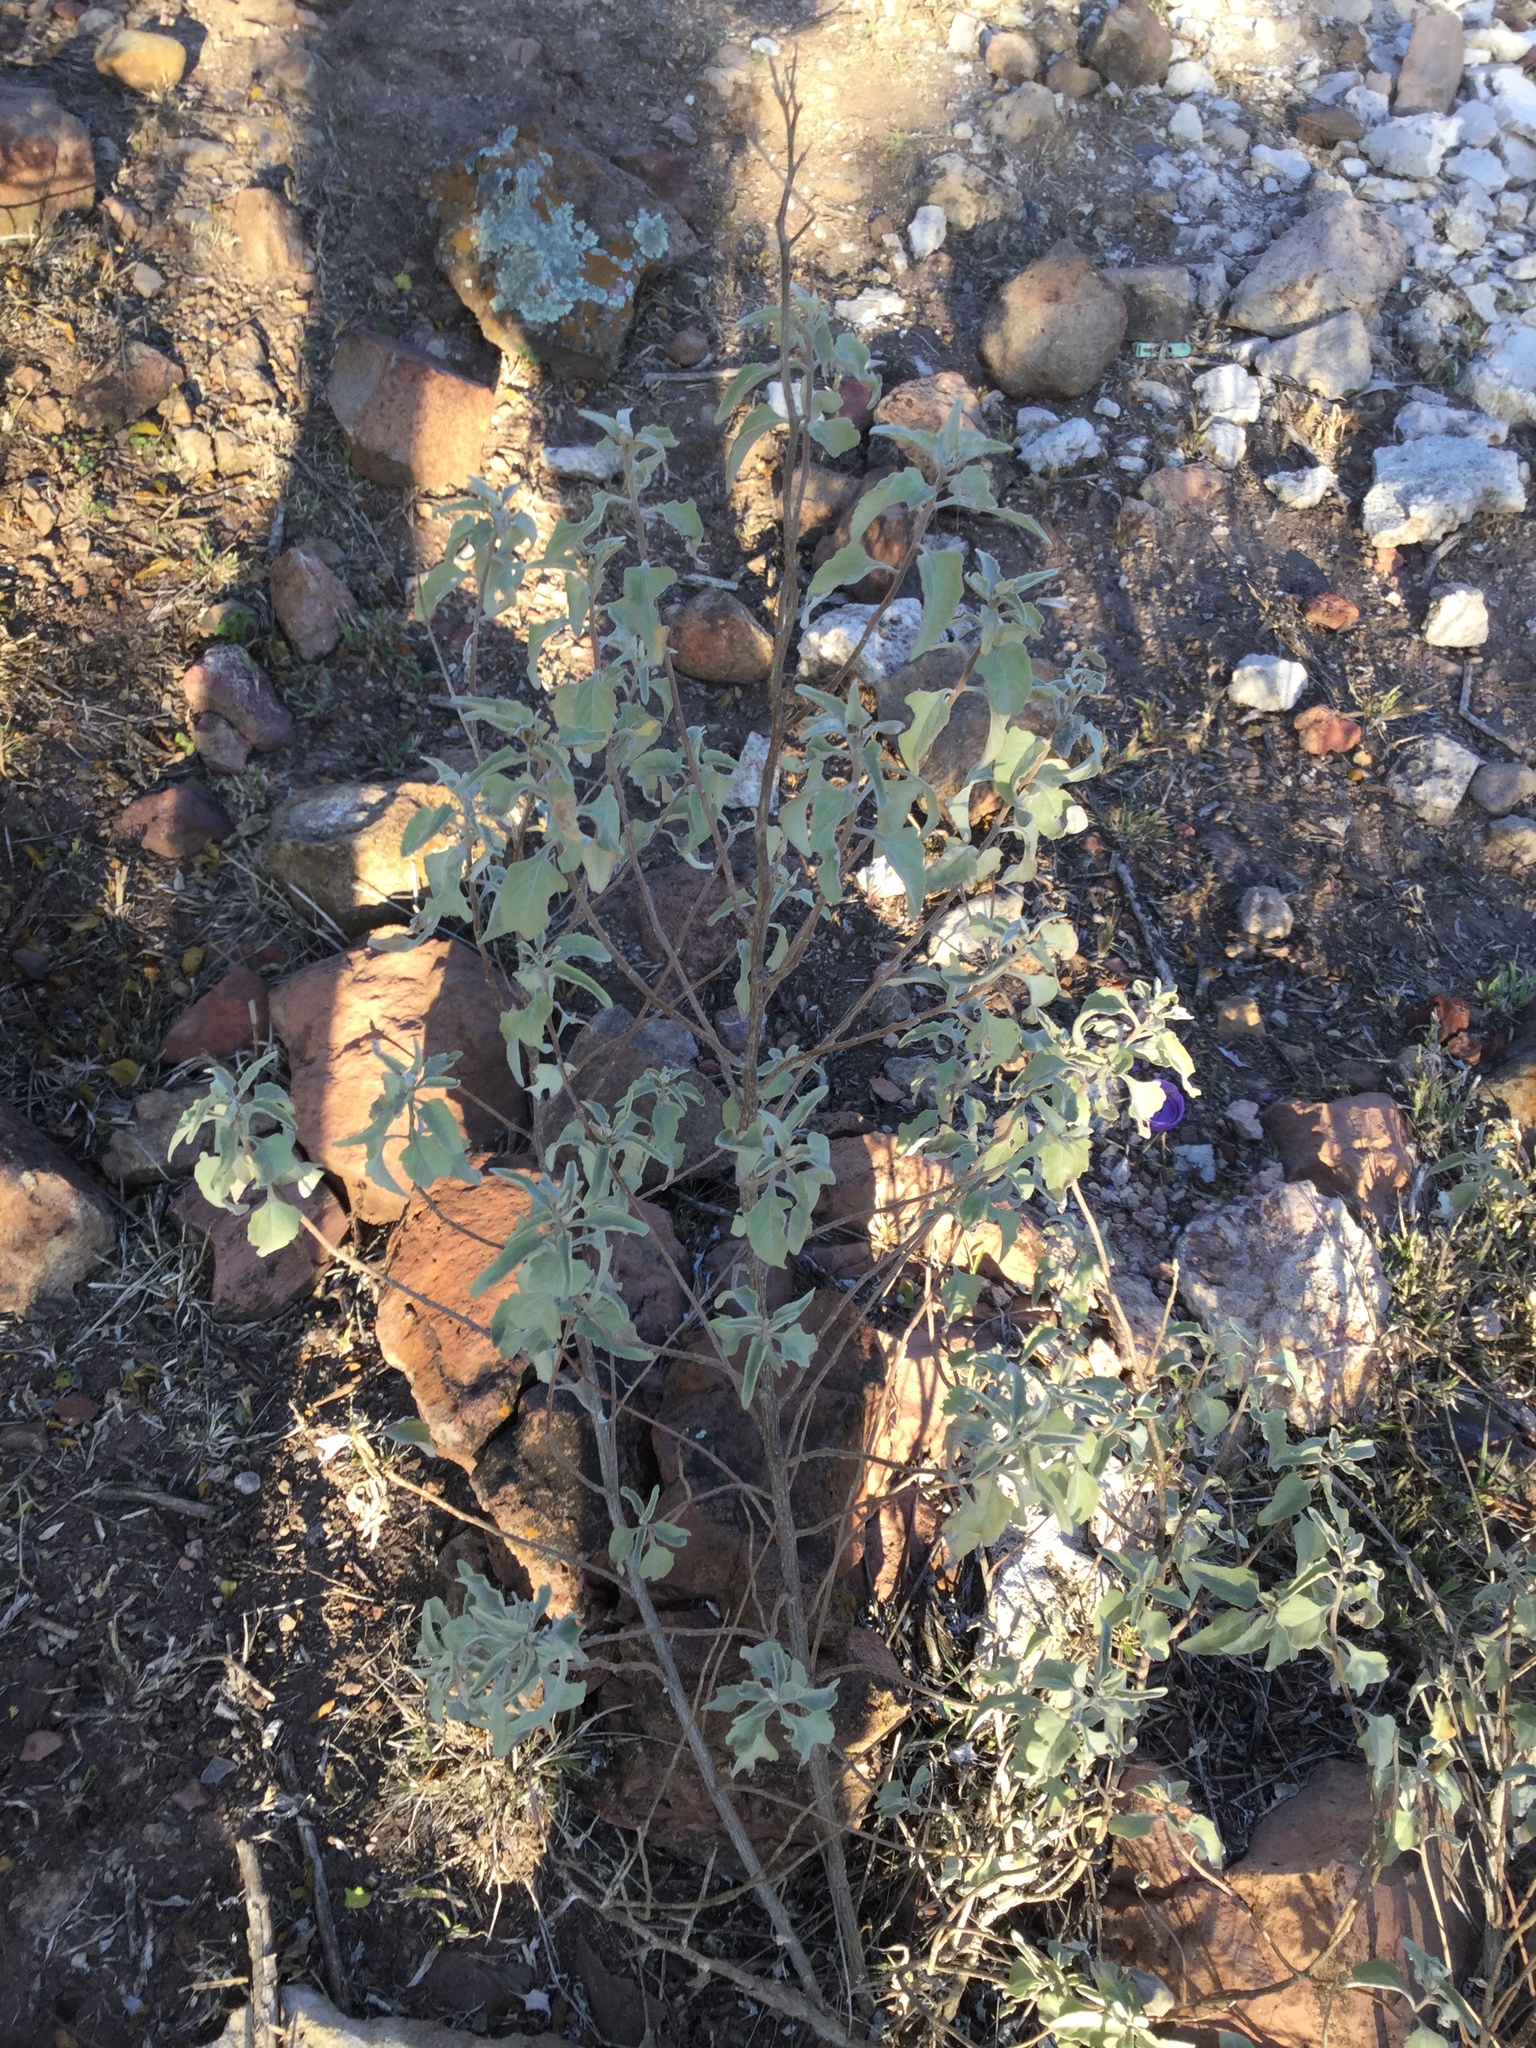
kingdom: Plantae
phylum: Tracheophyta
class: Magnoliopsida
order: Asterales
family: Asteraceae
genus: Zaluzania
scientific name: Zaluzania augusta
